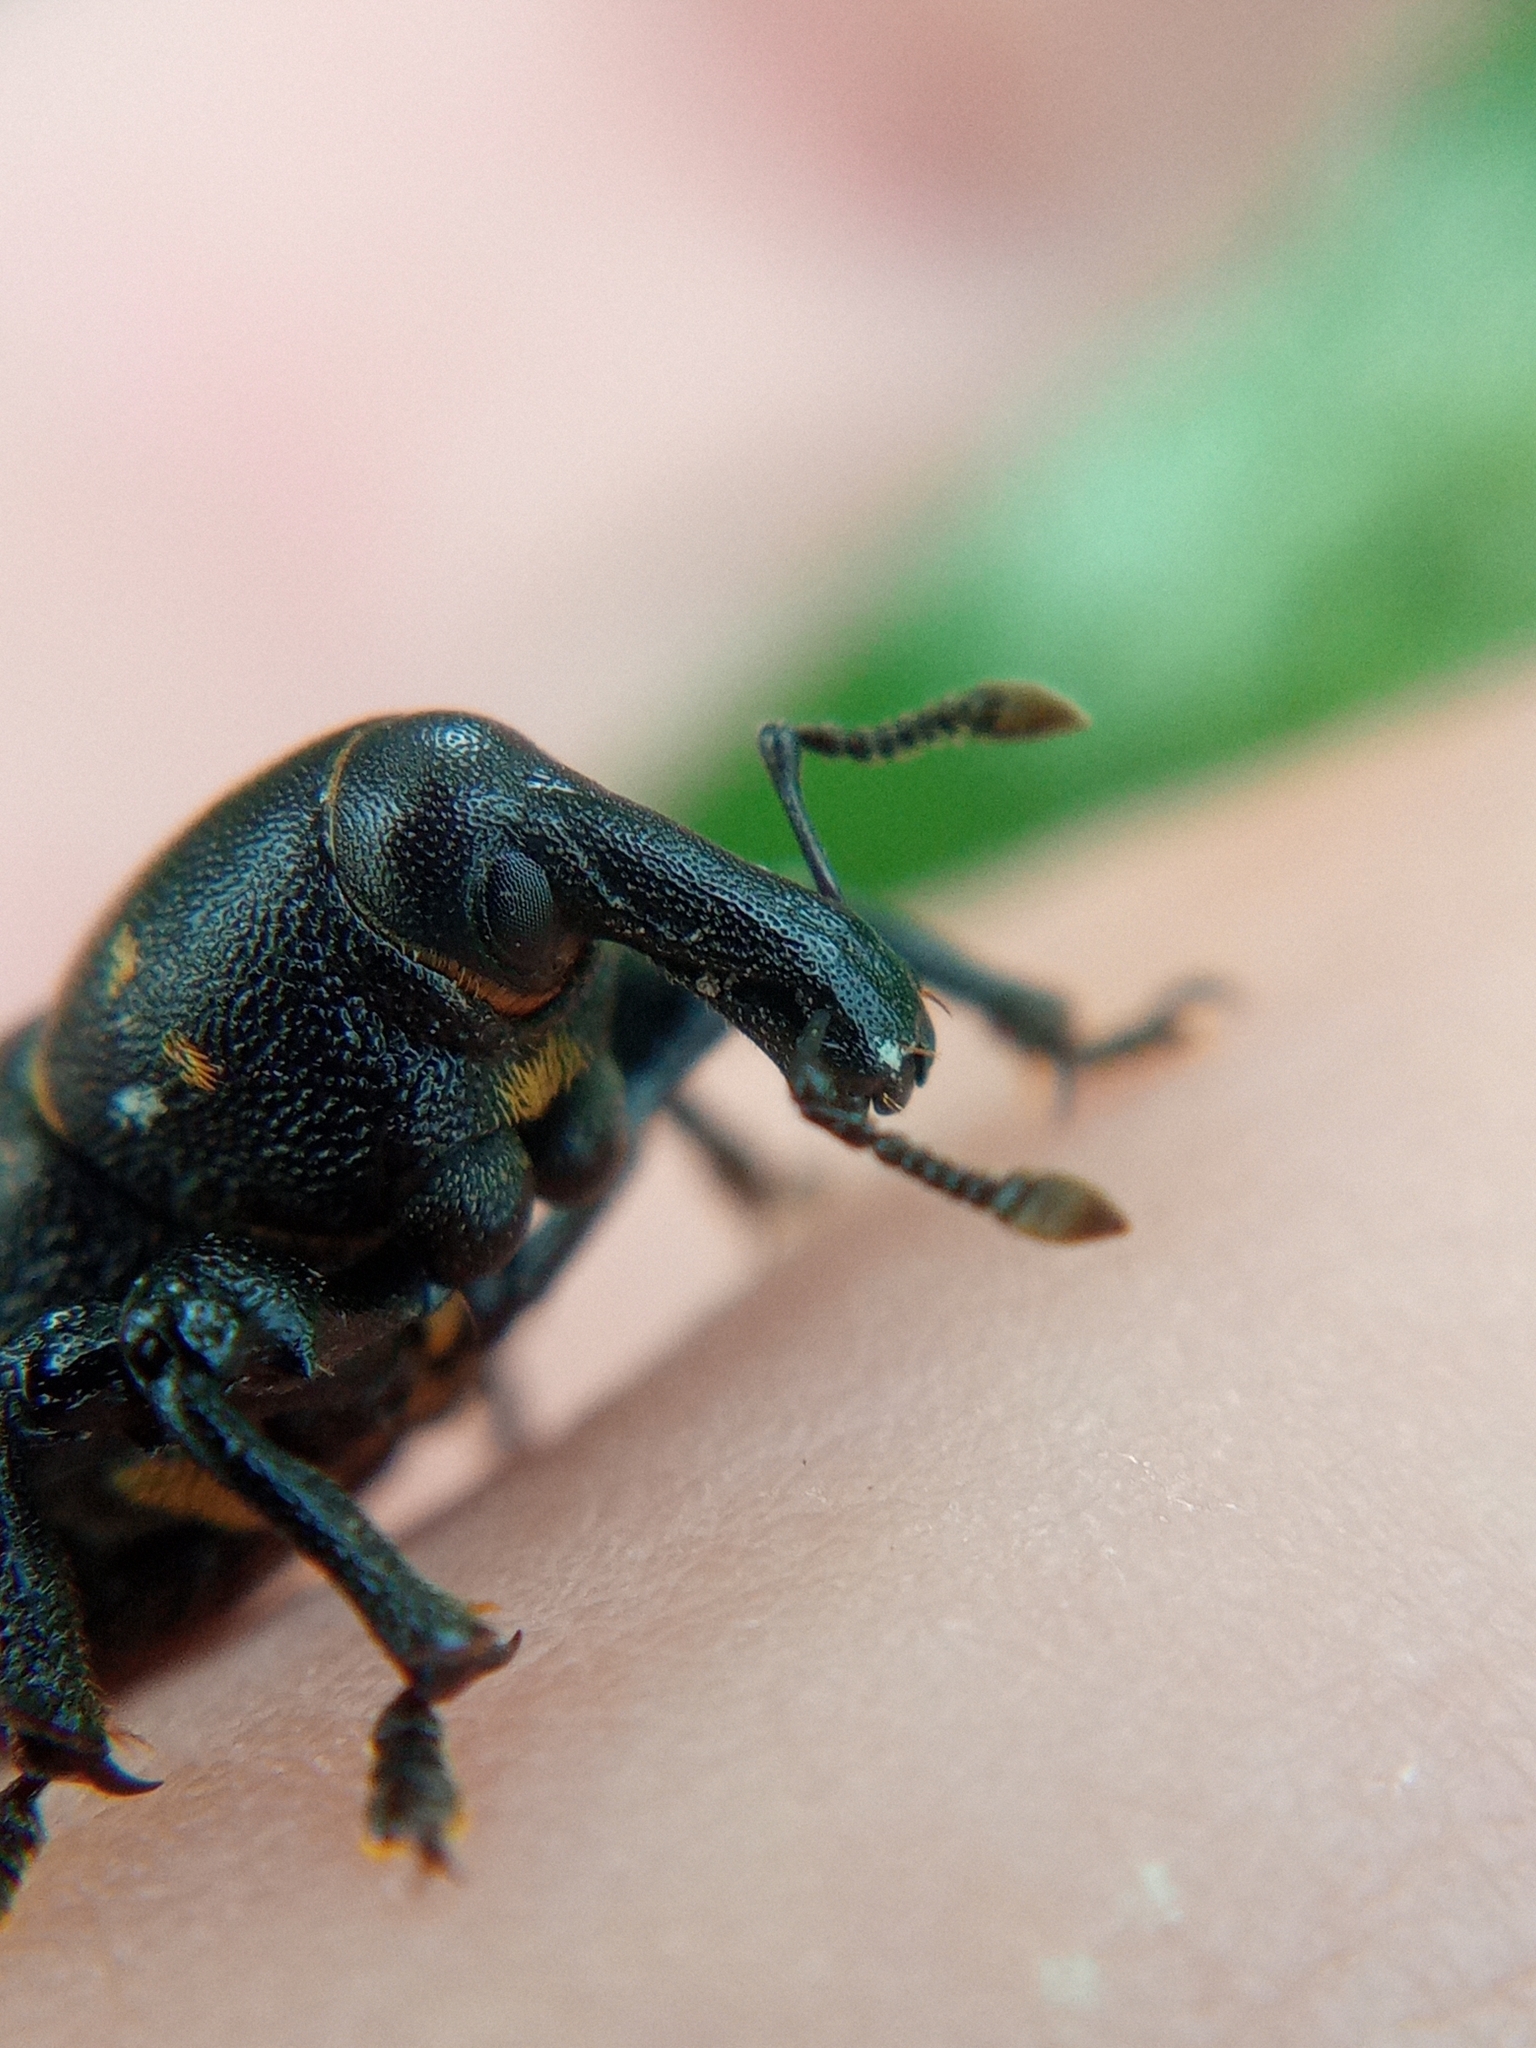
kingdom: Animalia
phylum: Arthropoda
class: Insecta
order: Coleoptera
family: Curculionidae
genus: Liparus
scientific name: Liparus coronatus
